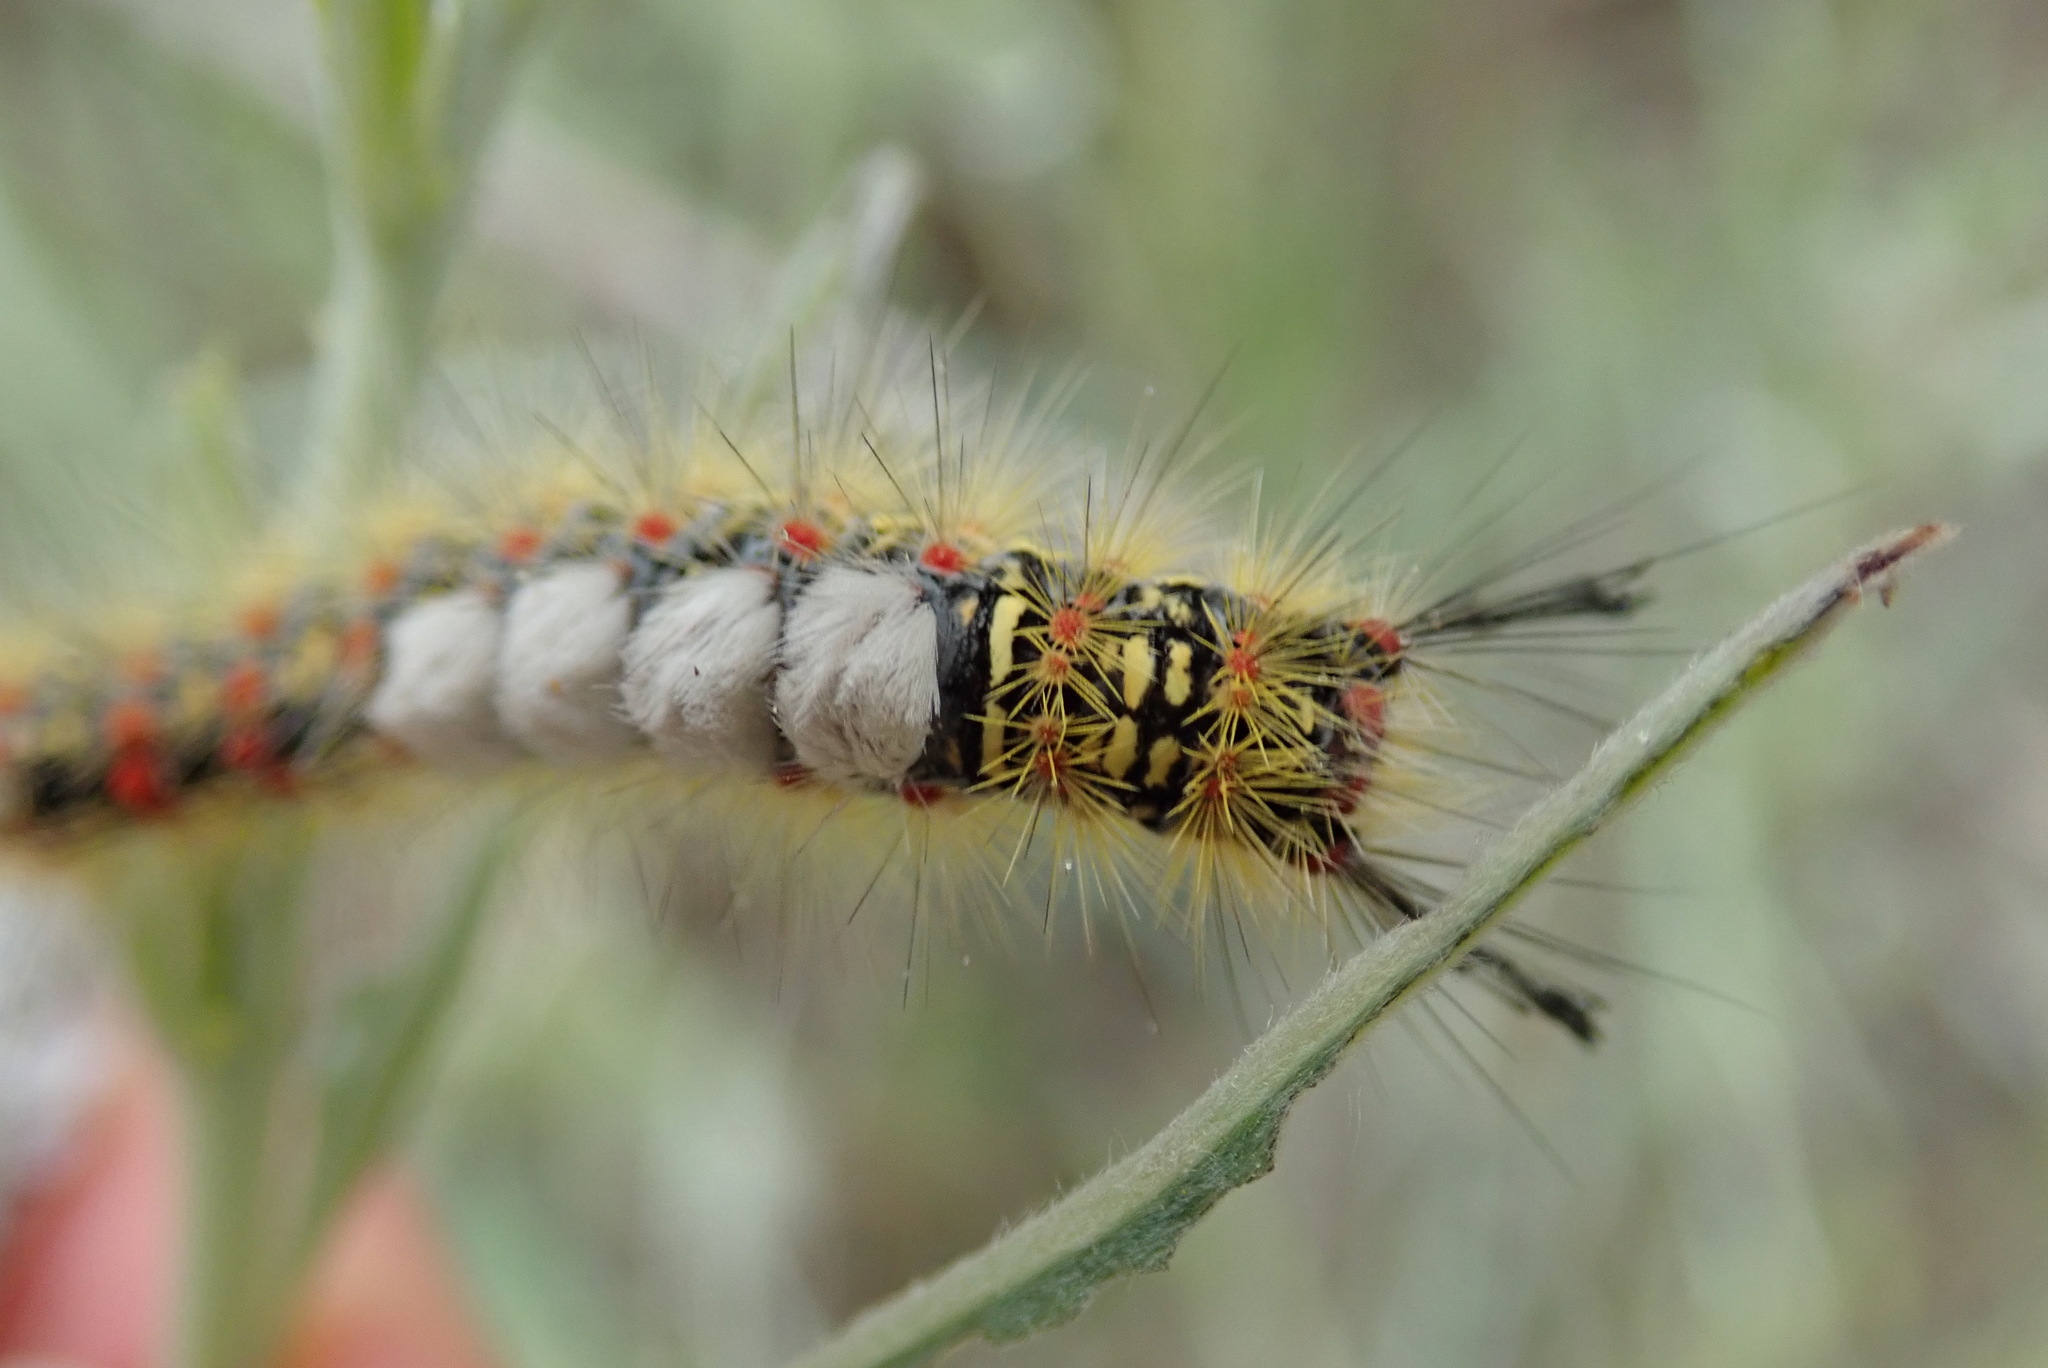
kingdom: Animalia
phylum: Arthropoda
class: Insecta
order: Lepidoptera
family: Erebidae
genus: Orgyia
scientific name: Orgyia vetusta
